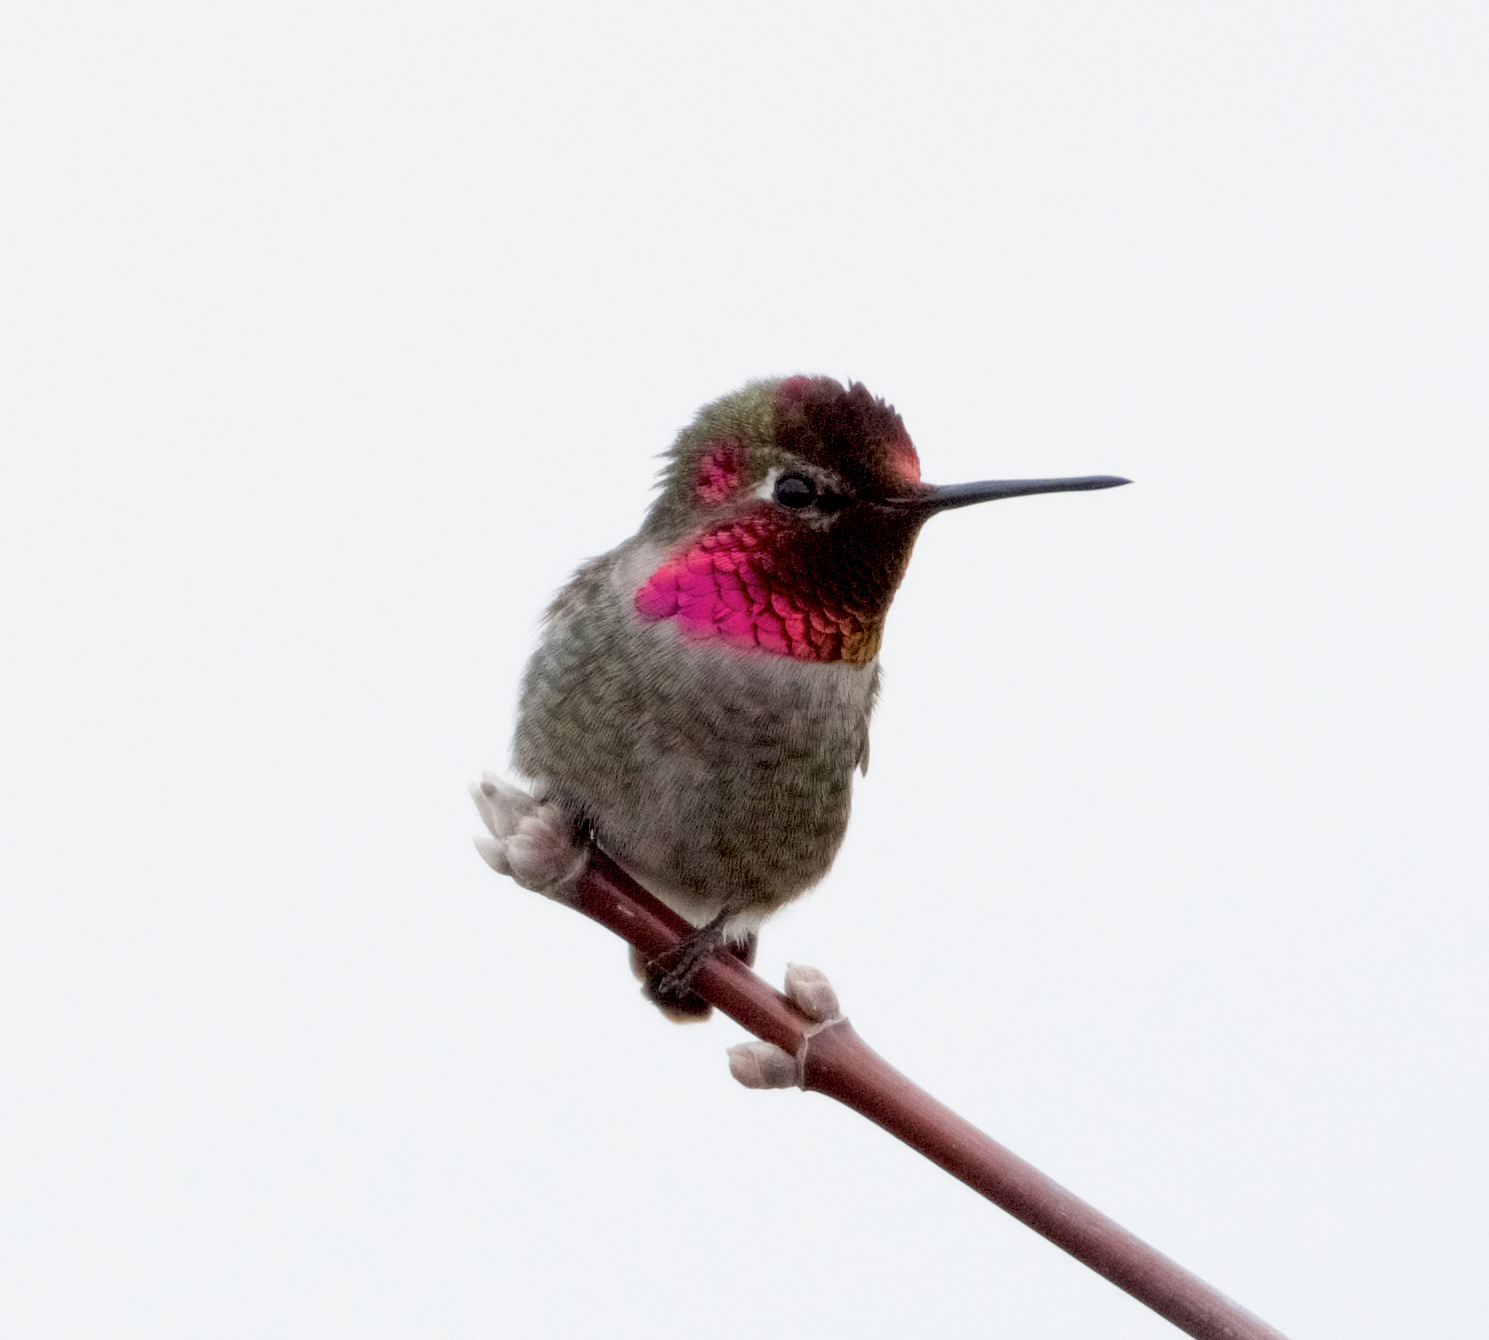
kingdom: Animalia
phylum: Chordata
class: Aves
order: Apodiformes
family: Trochilidae
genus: Calypte
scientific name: Calypte anna
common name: Anna's hummingbird
